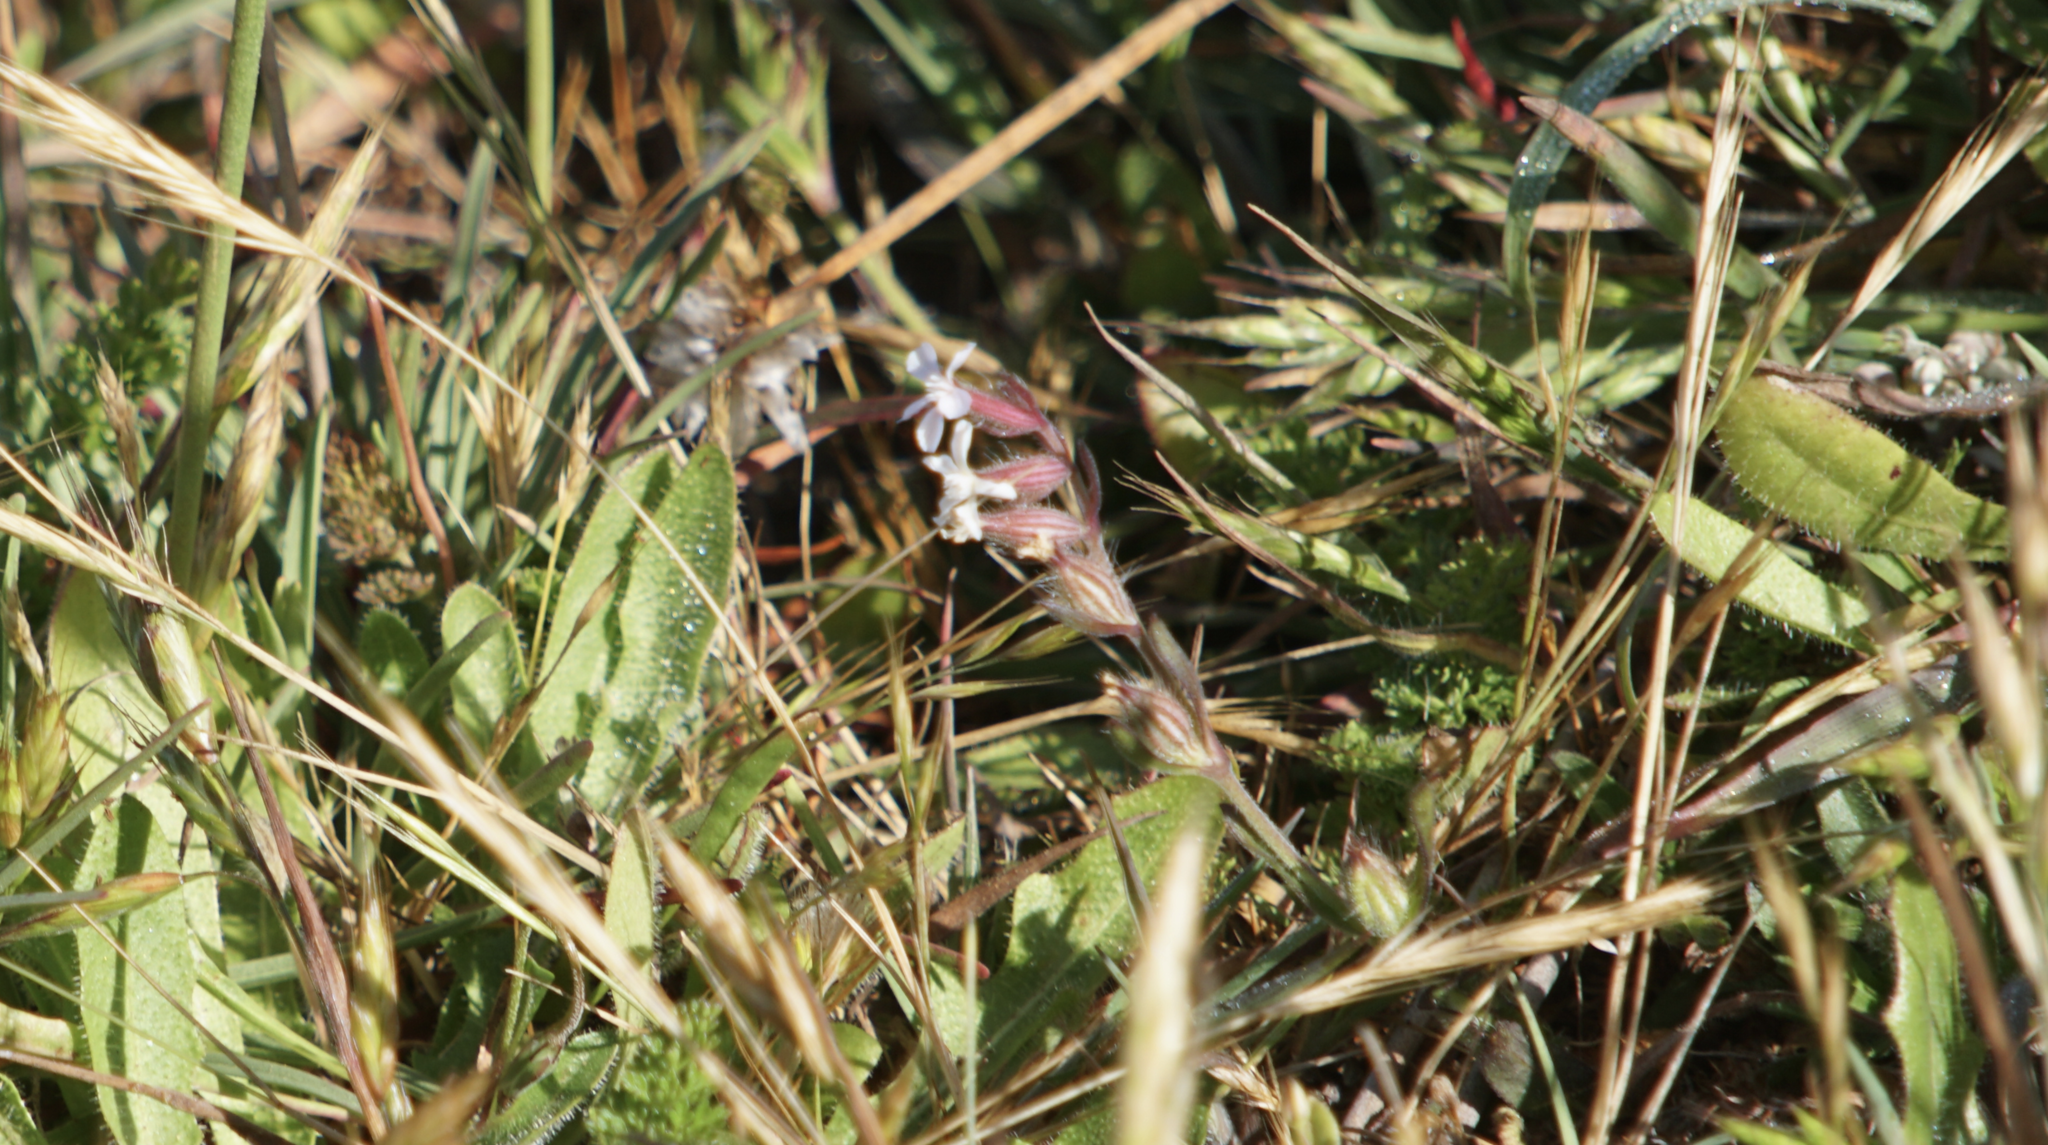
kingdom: Plantae
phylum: Tracheophyta
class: Magnoliopsida
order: Caryophyllales
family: Caryophyllaceae
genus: Silene
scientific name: Silene gallica
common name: Small-flowered catchfly
